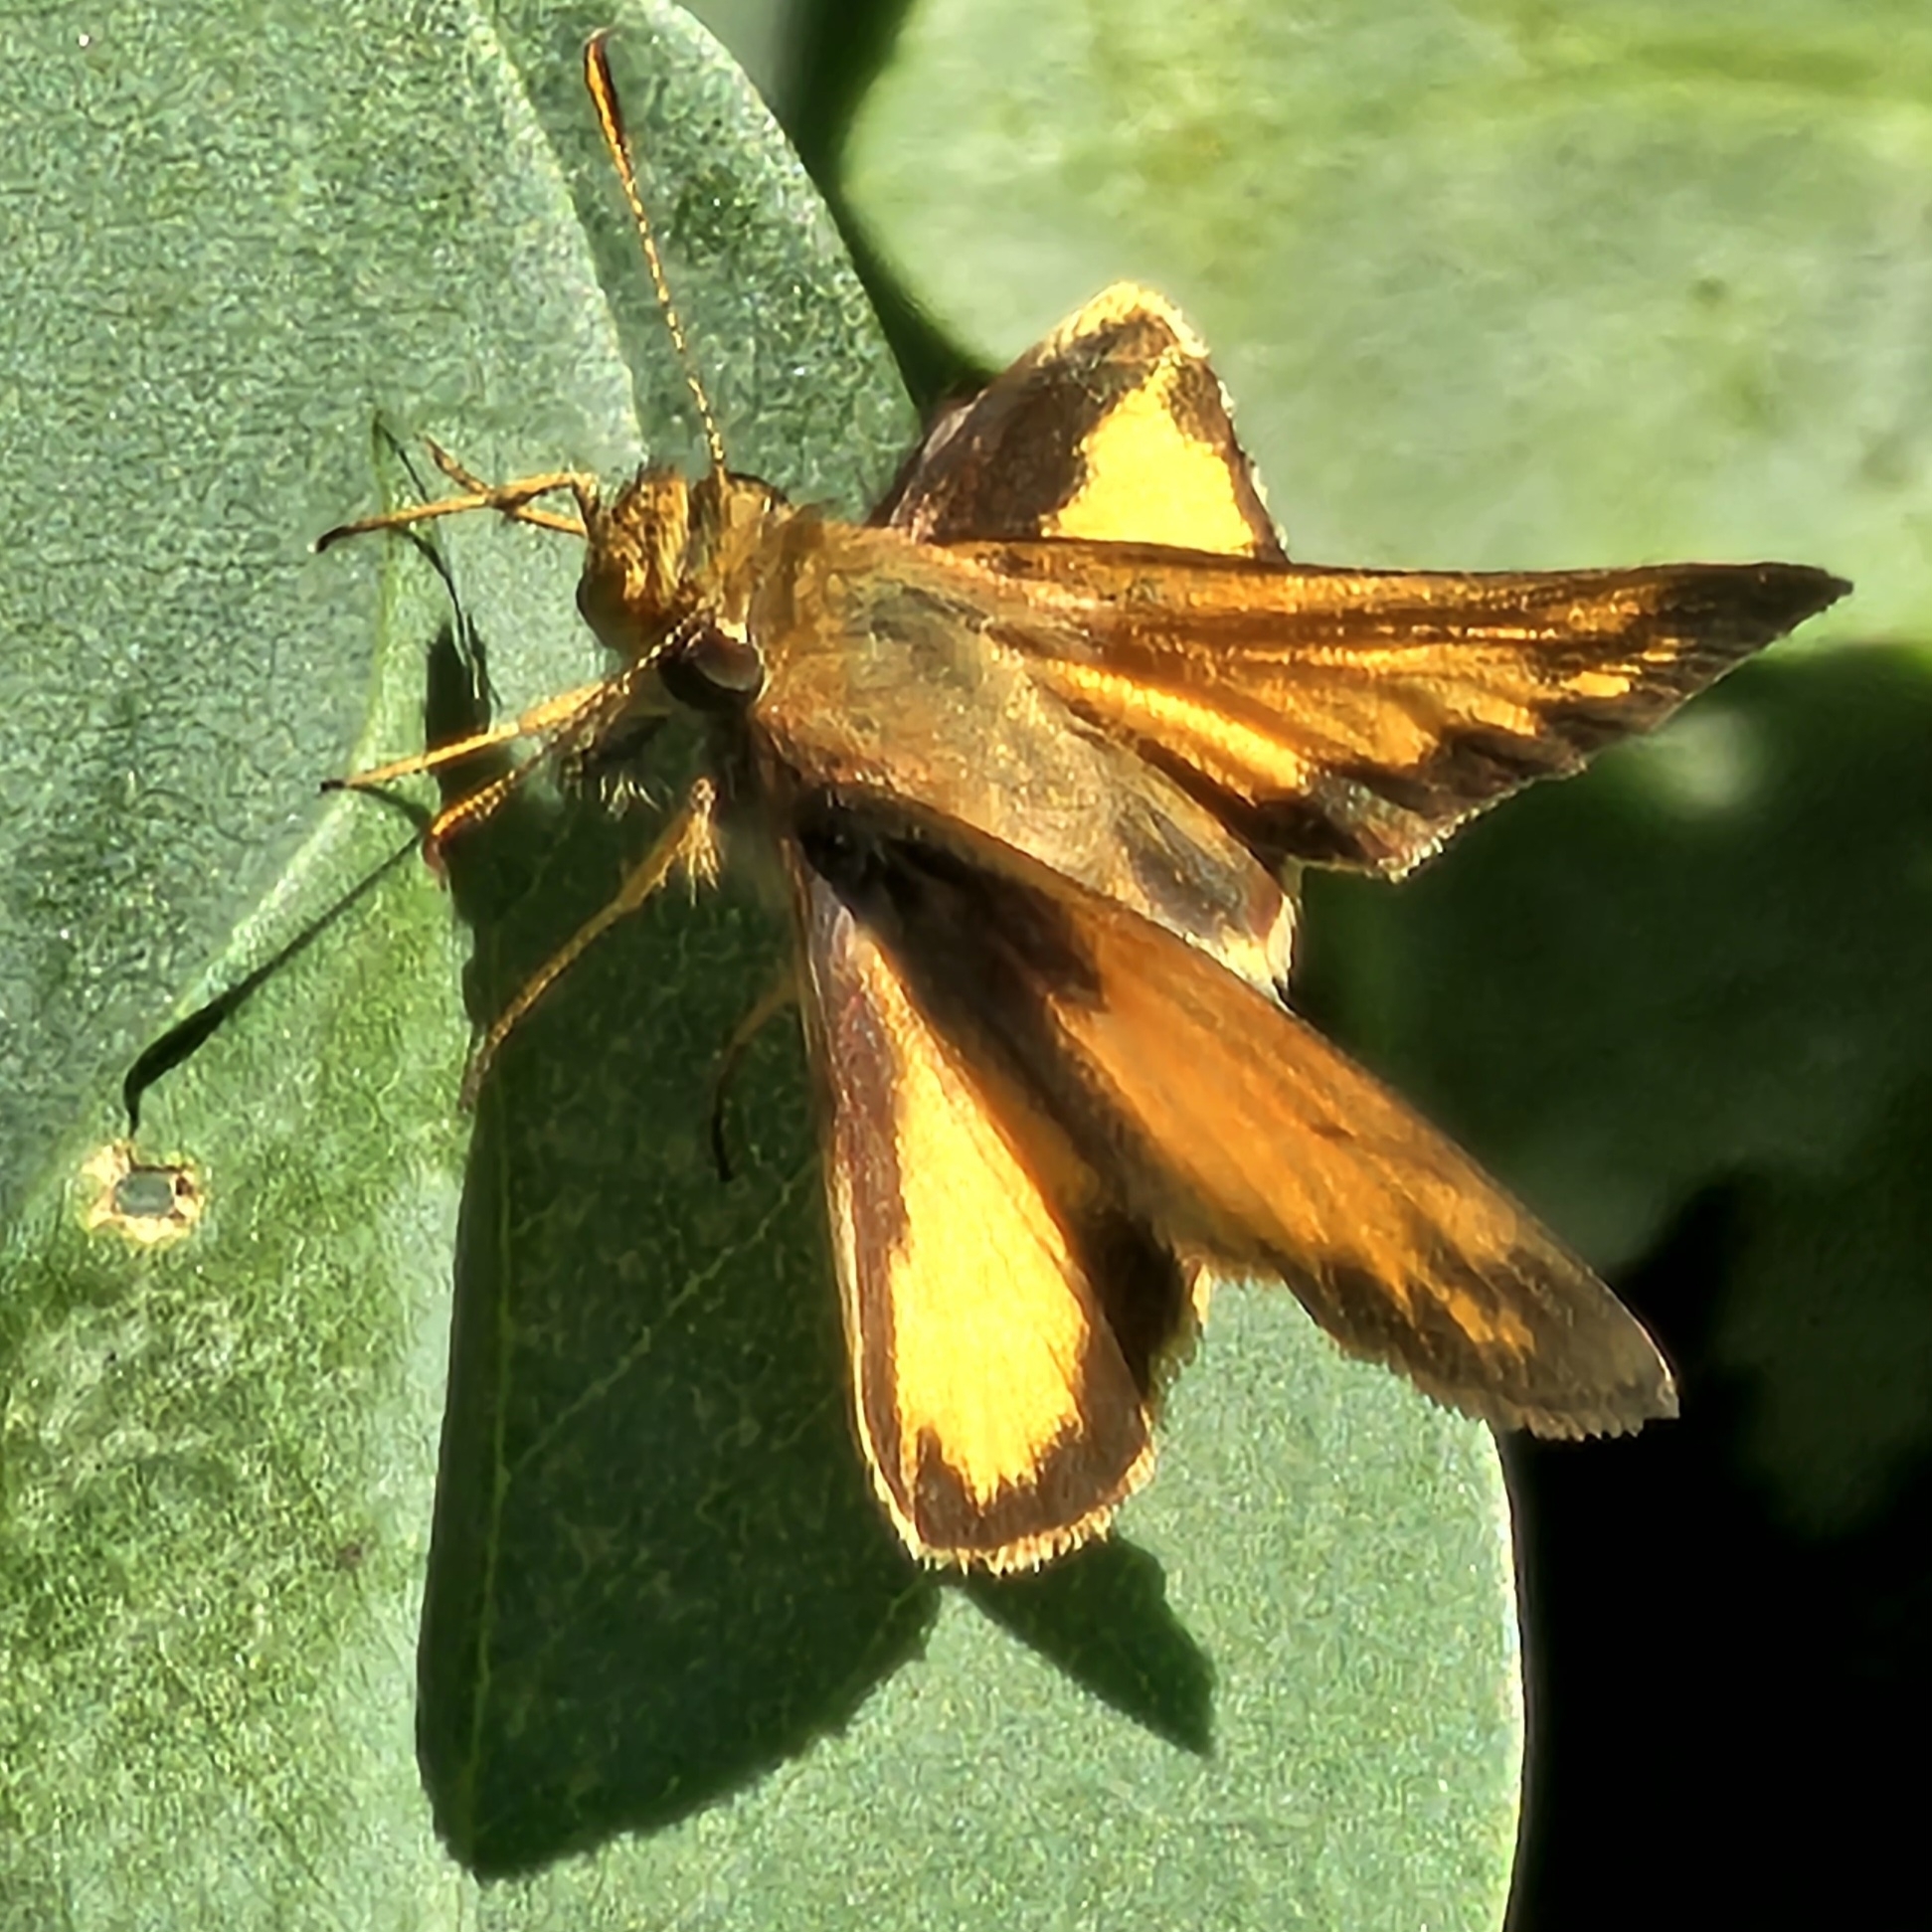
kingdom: Animalia
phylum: Arthropoda
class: Insecta
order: Lepidoptera
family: Hesperiidae
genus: Lon
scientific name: Lon zabulon
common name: Zabulon skipper
